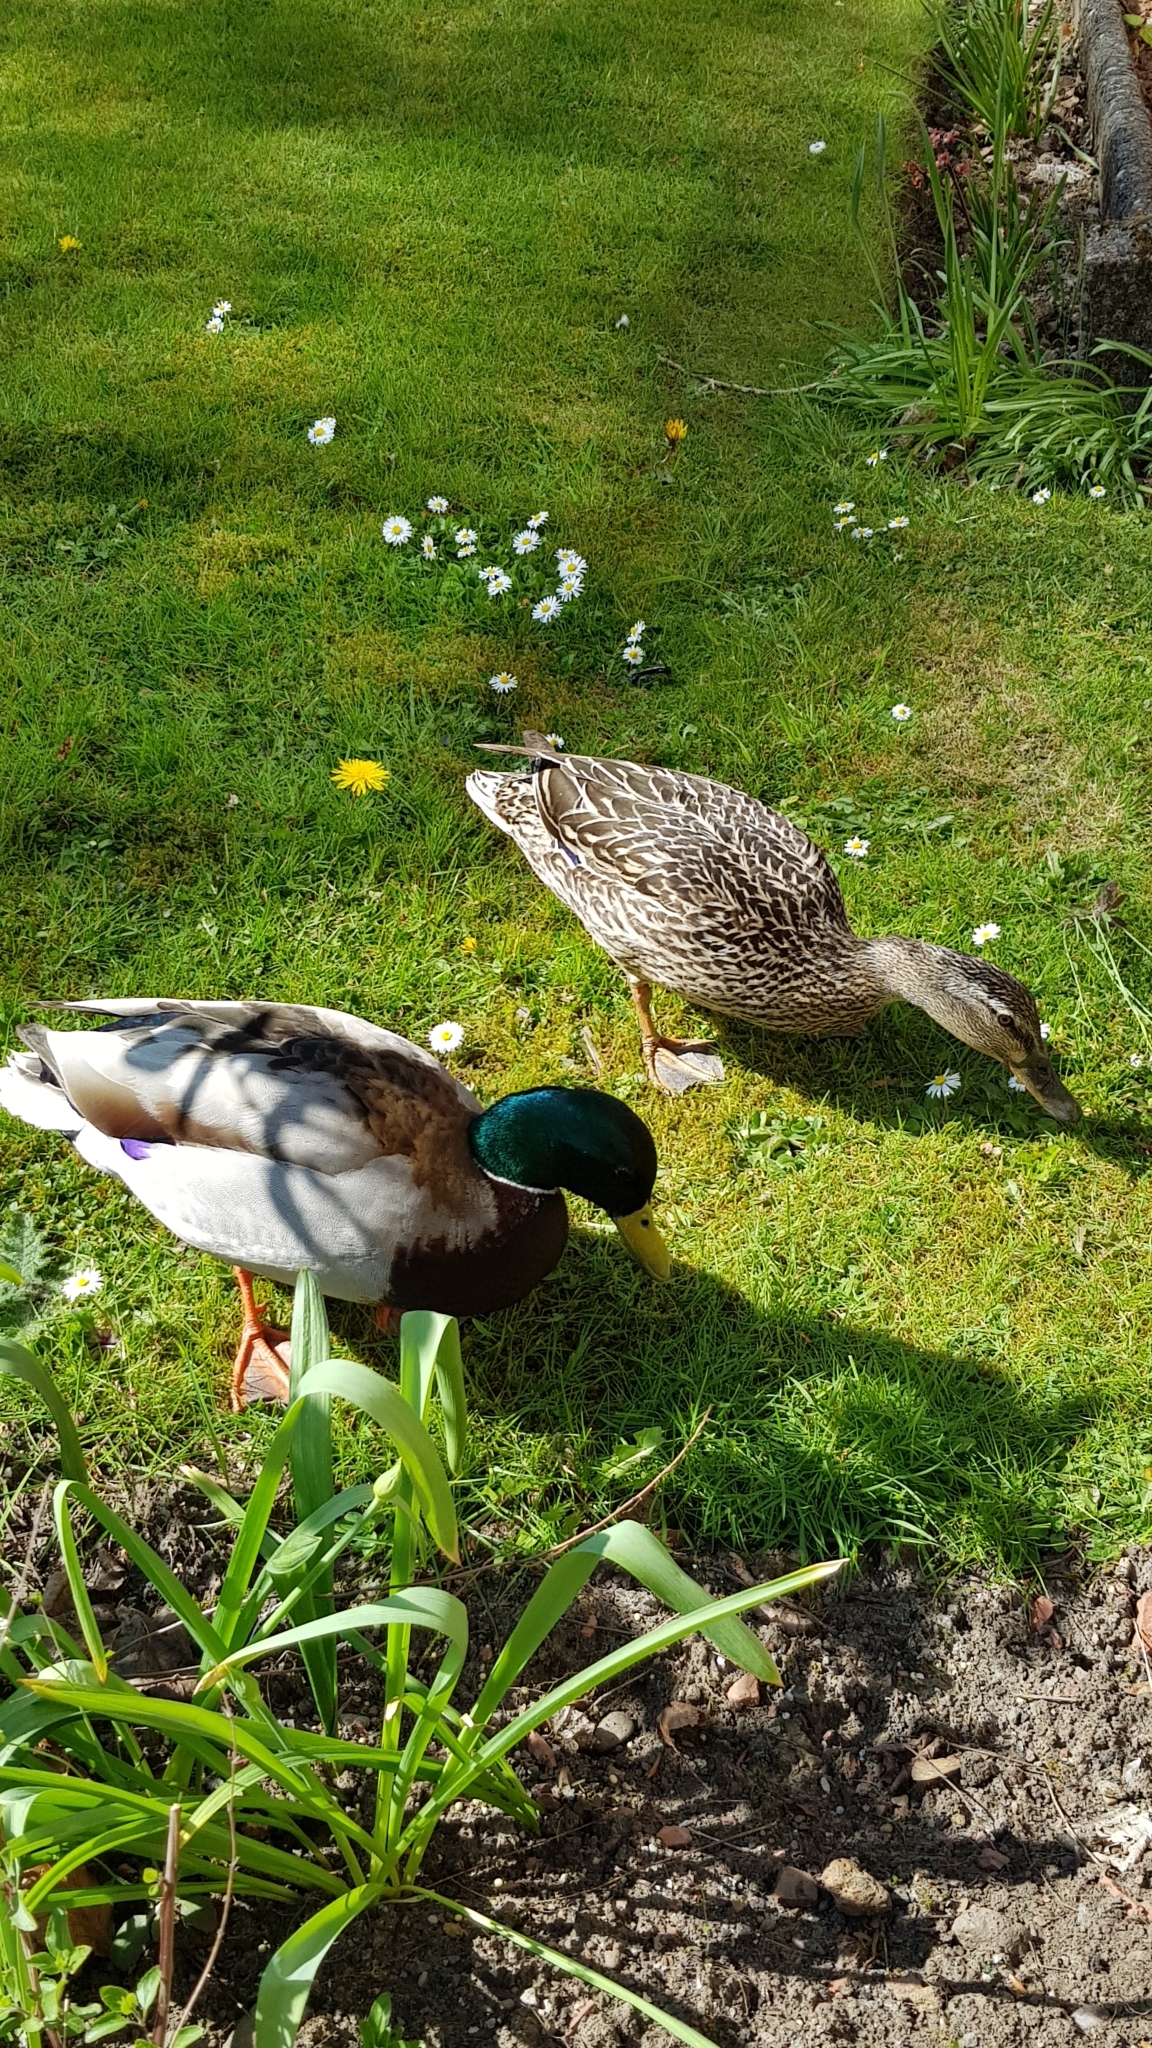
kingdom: Animalia
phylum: Chordata
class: Aves
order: Anseriformes
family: Anatidae
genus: Anas
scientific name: Anas platyrhynchos
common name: Mallard
